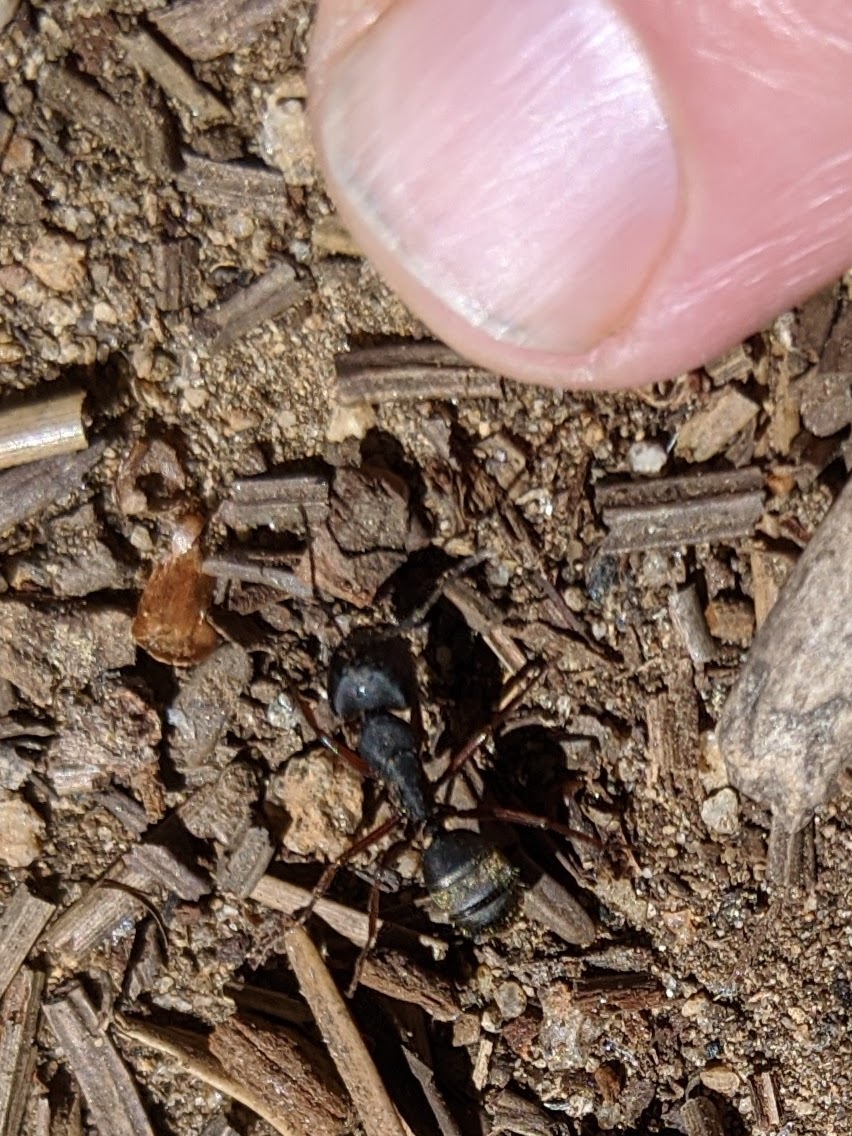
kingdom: Animalia
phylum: Arthropoda
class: Insecta
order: Hymenoptera
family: Formicidae
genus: Camponotus
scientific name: Camponotus modoc
